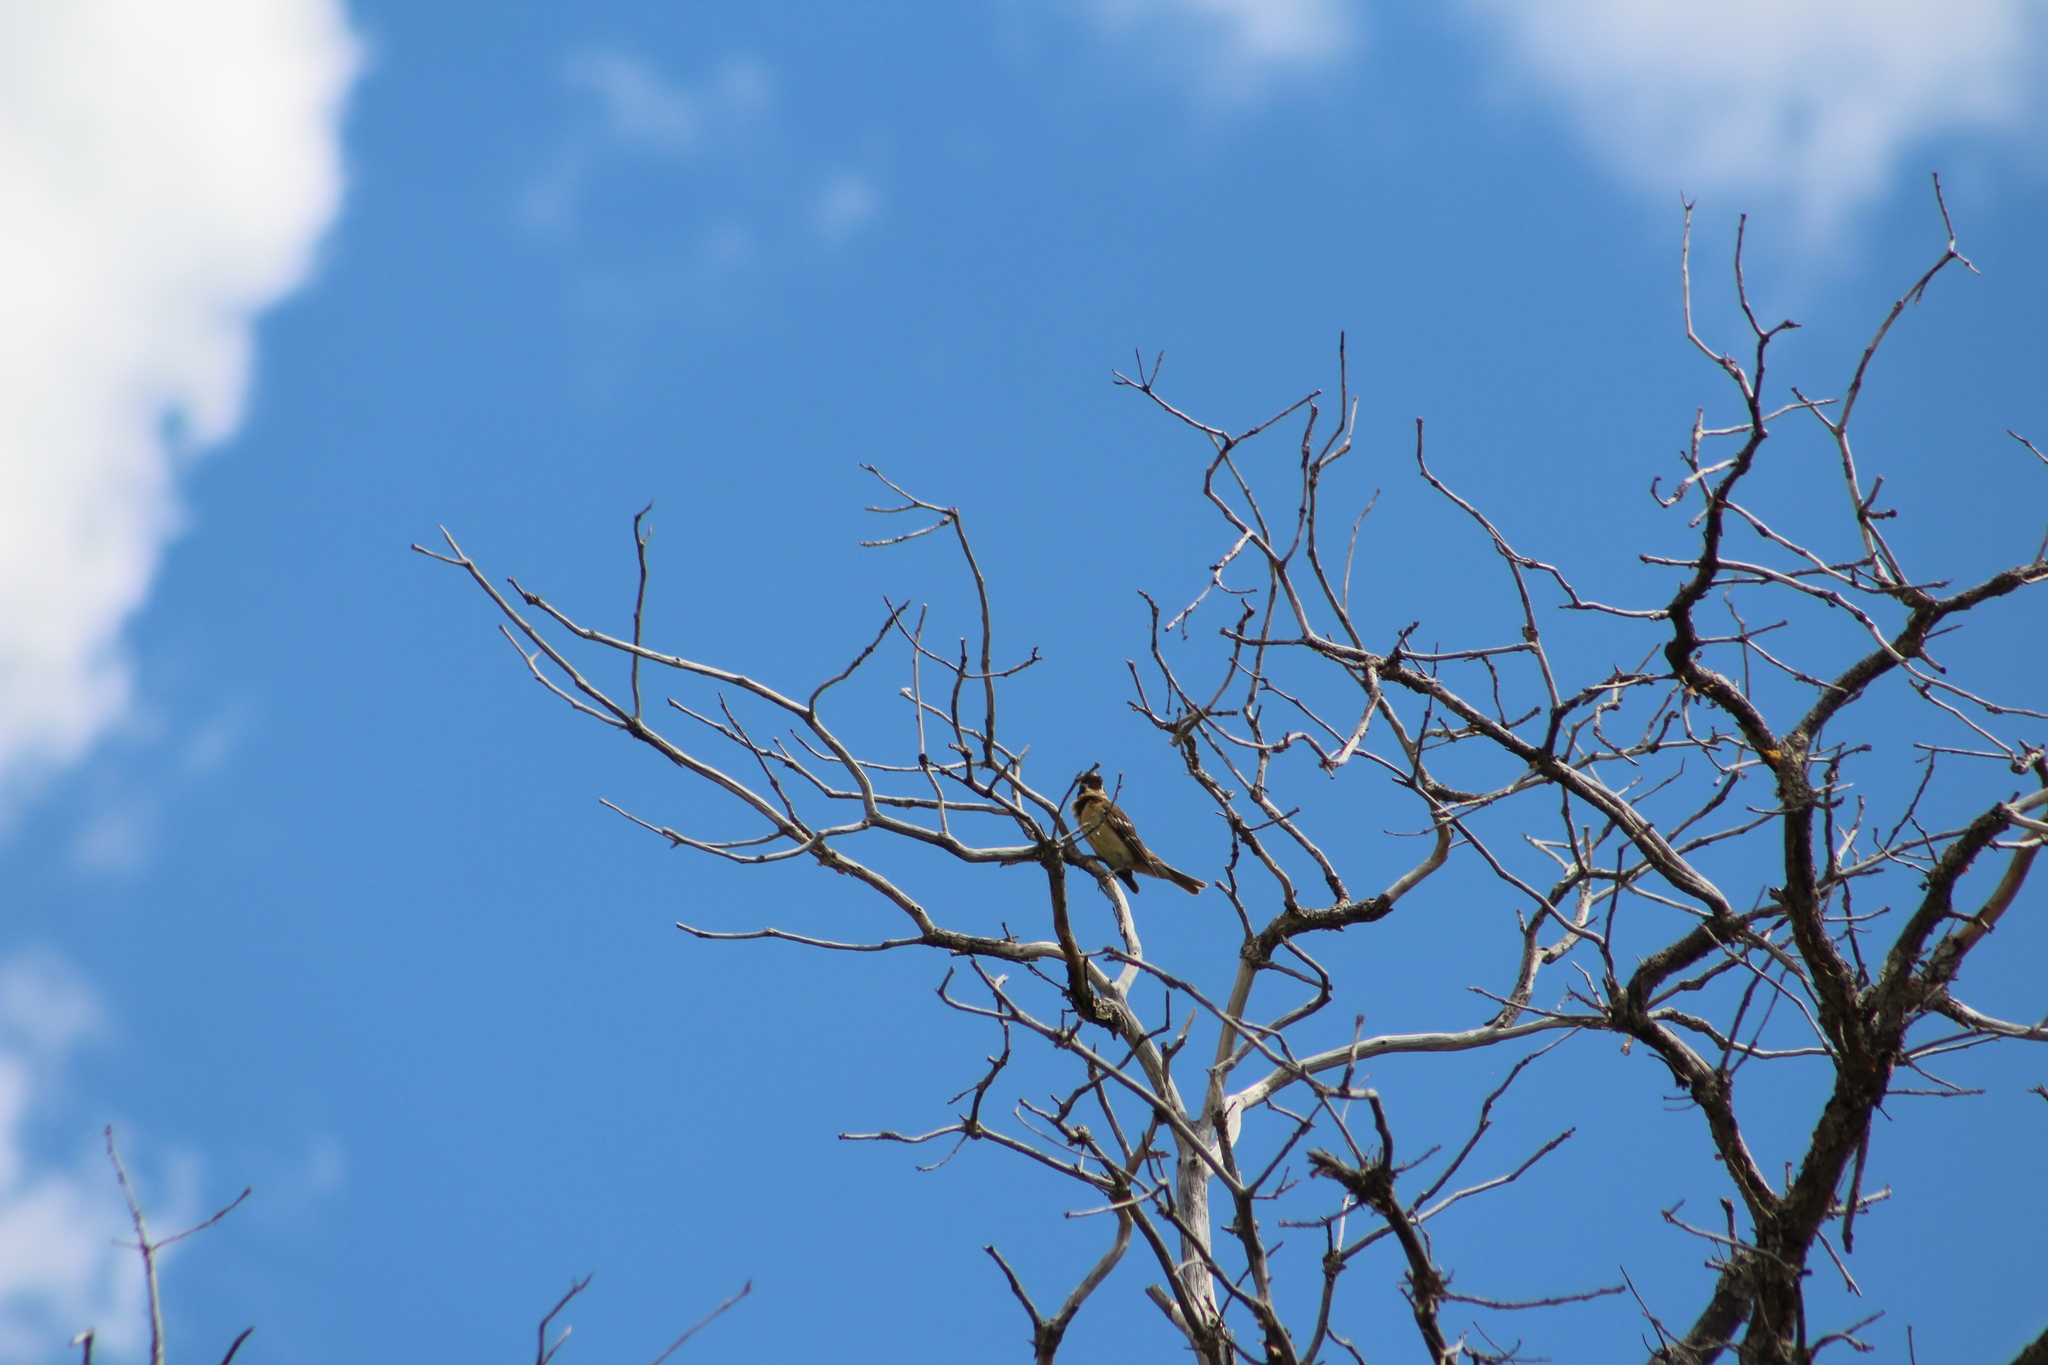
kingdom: Animalia
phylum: Chordata
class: Aves
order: Passeriformes
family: Cardinalidae
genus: Pheucticus
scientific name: Pheucticus melanocephalus
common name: Black-headed grosbeak
